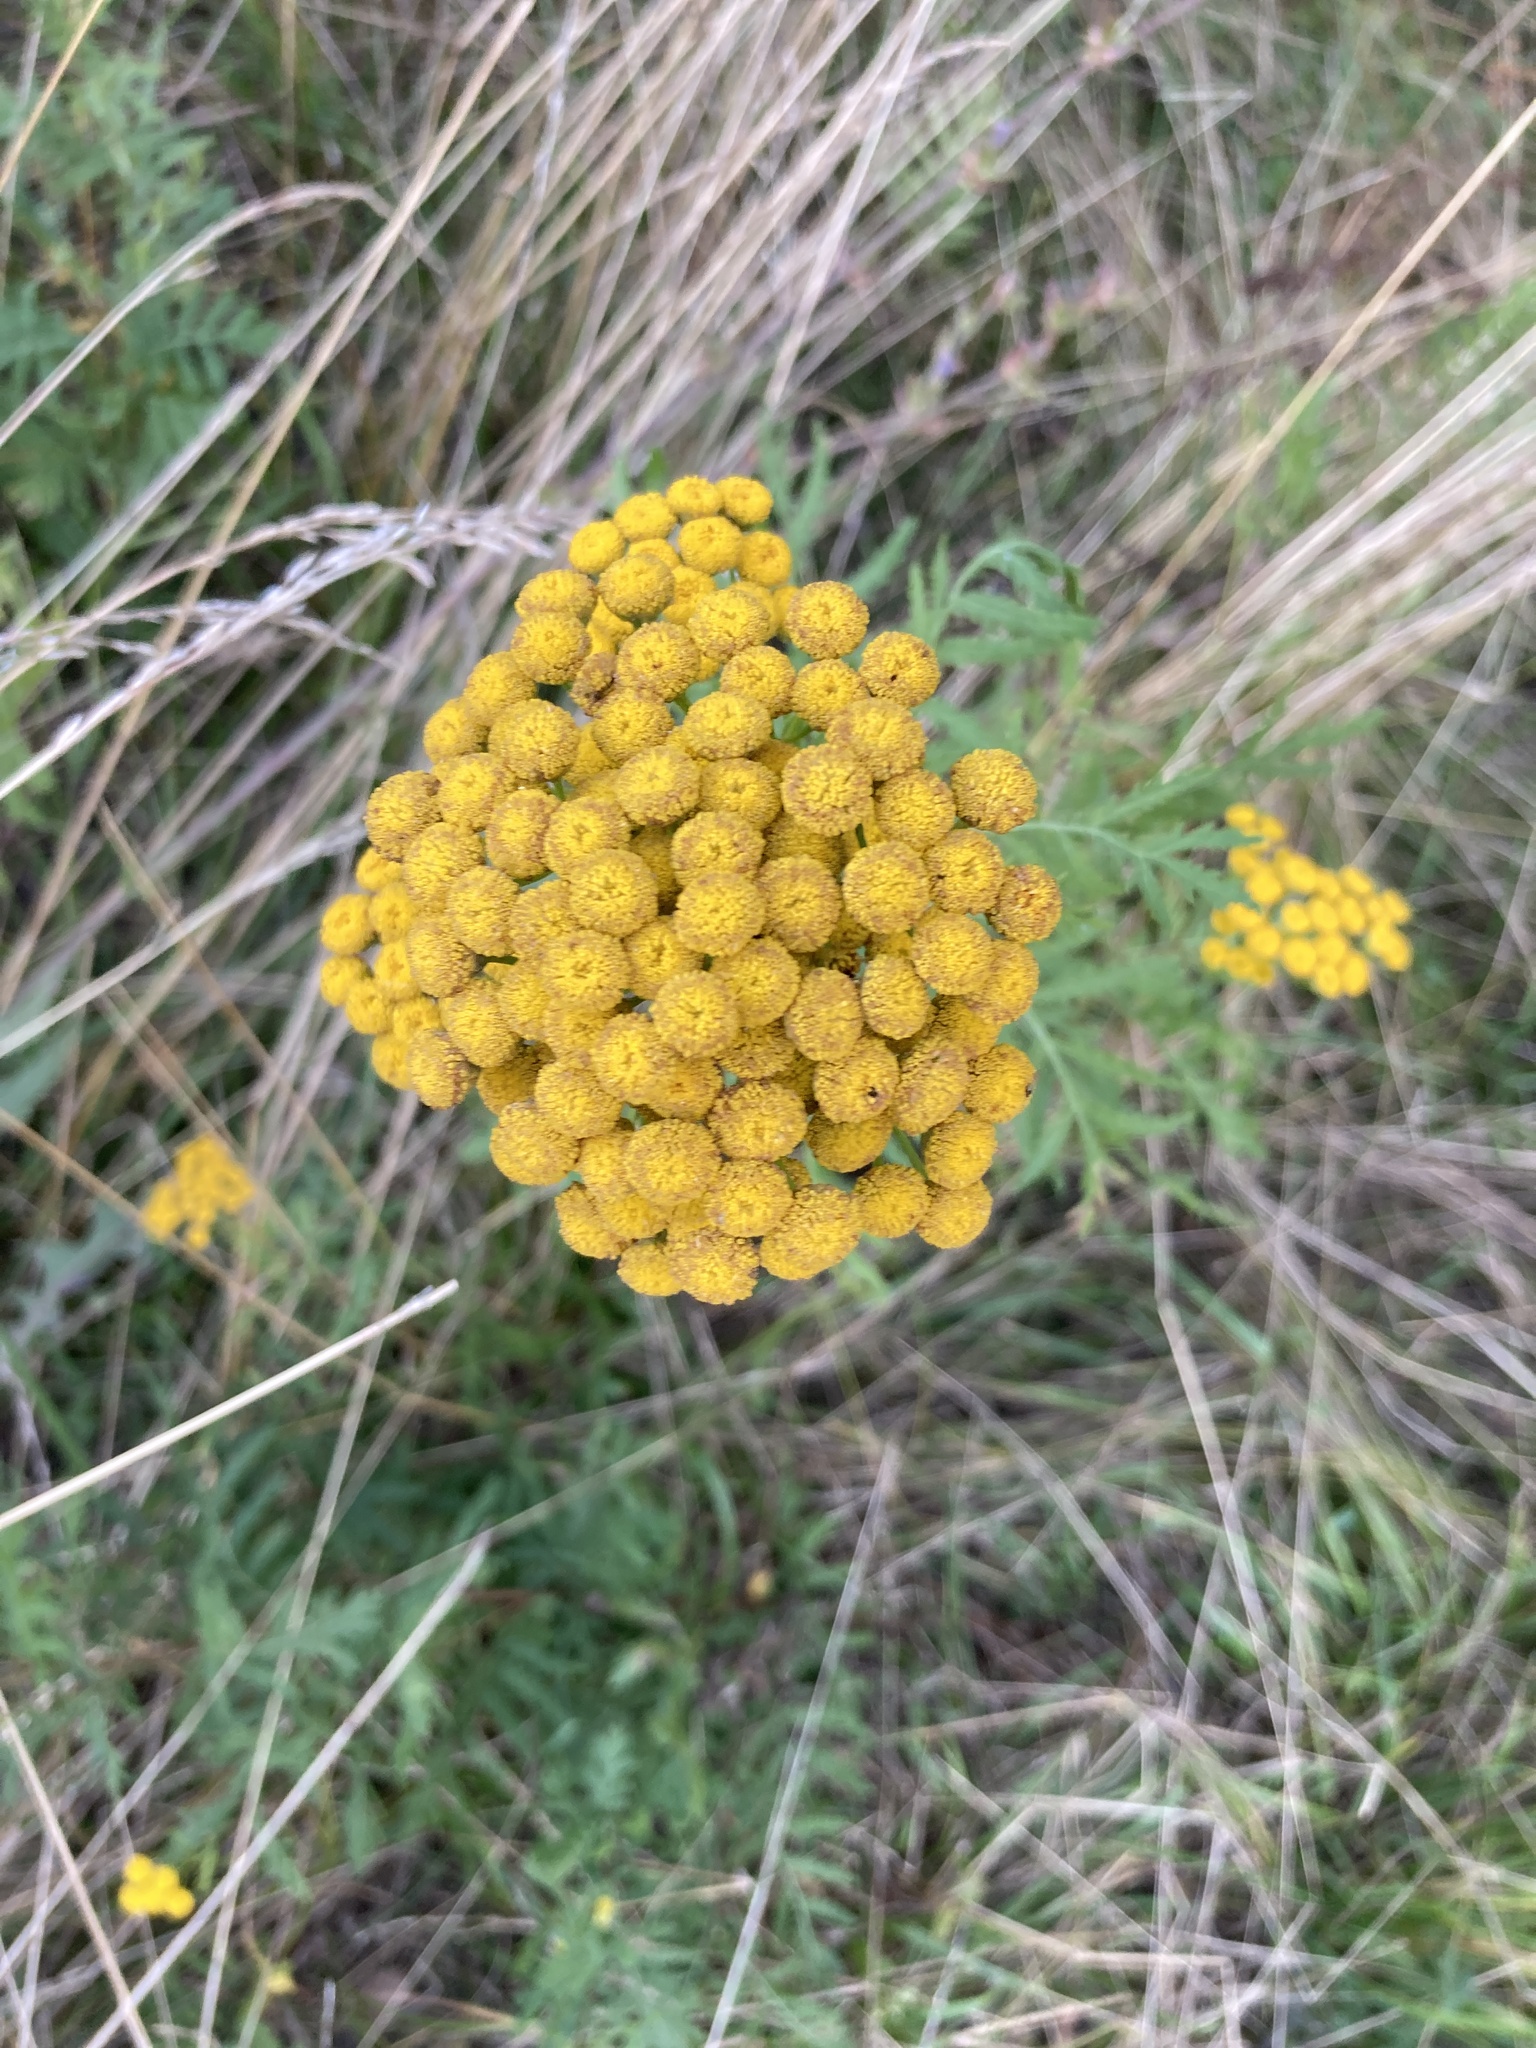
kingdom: Plantae
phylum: Tracheophyta
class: Magnoliopsida
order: Asterales
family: Asteraceae
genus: Tanacetum
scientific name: Tanacetum vulgare
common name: Common tansy
